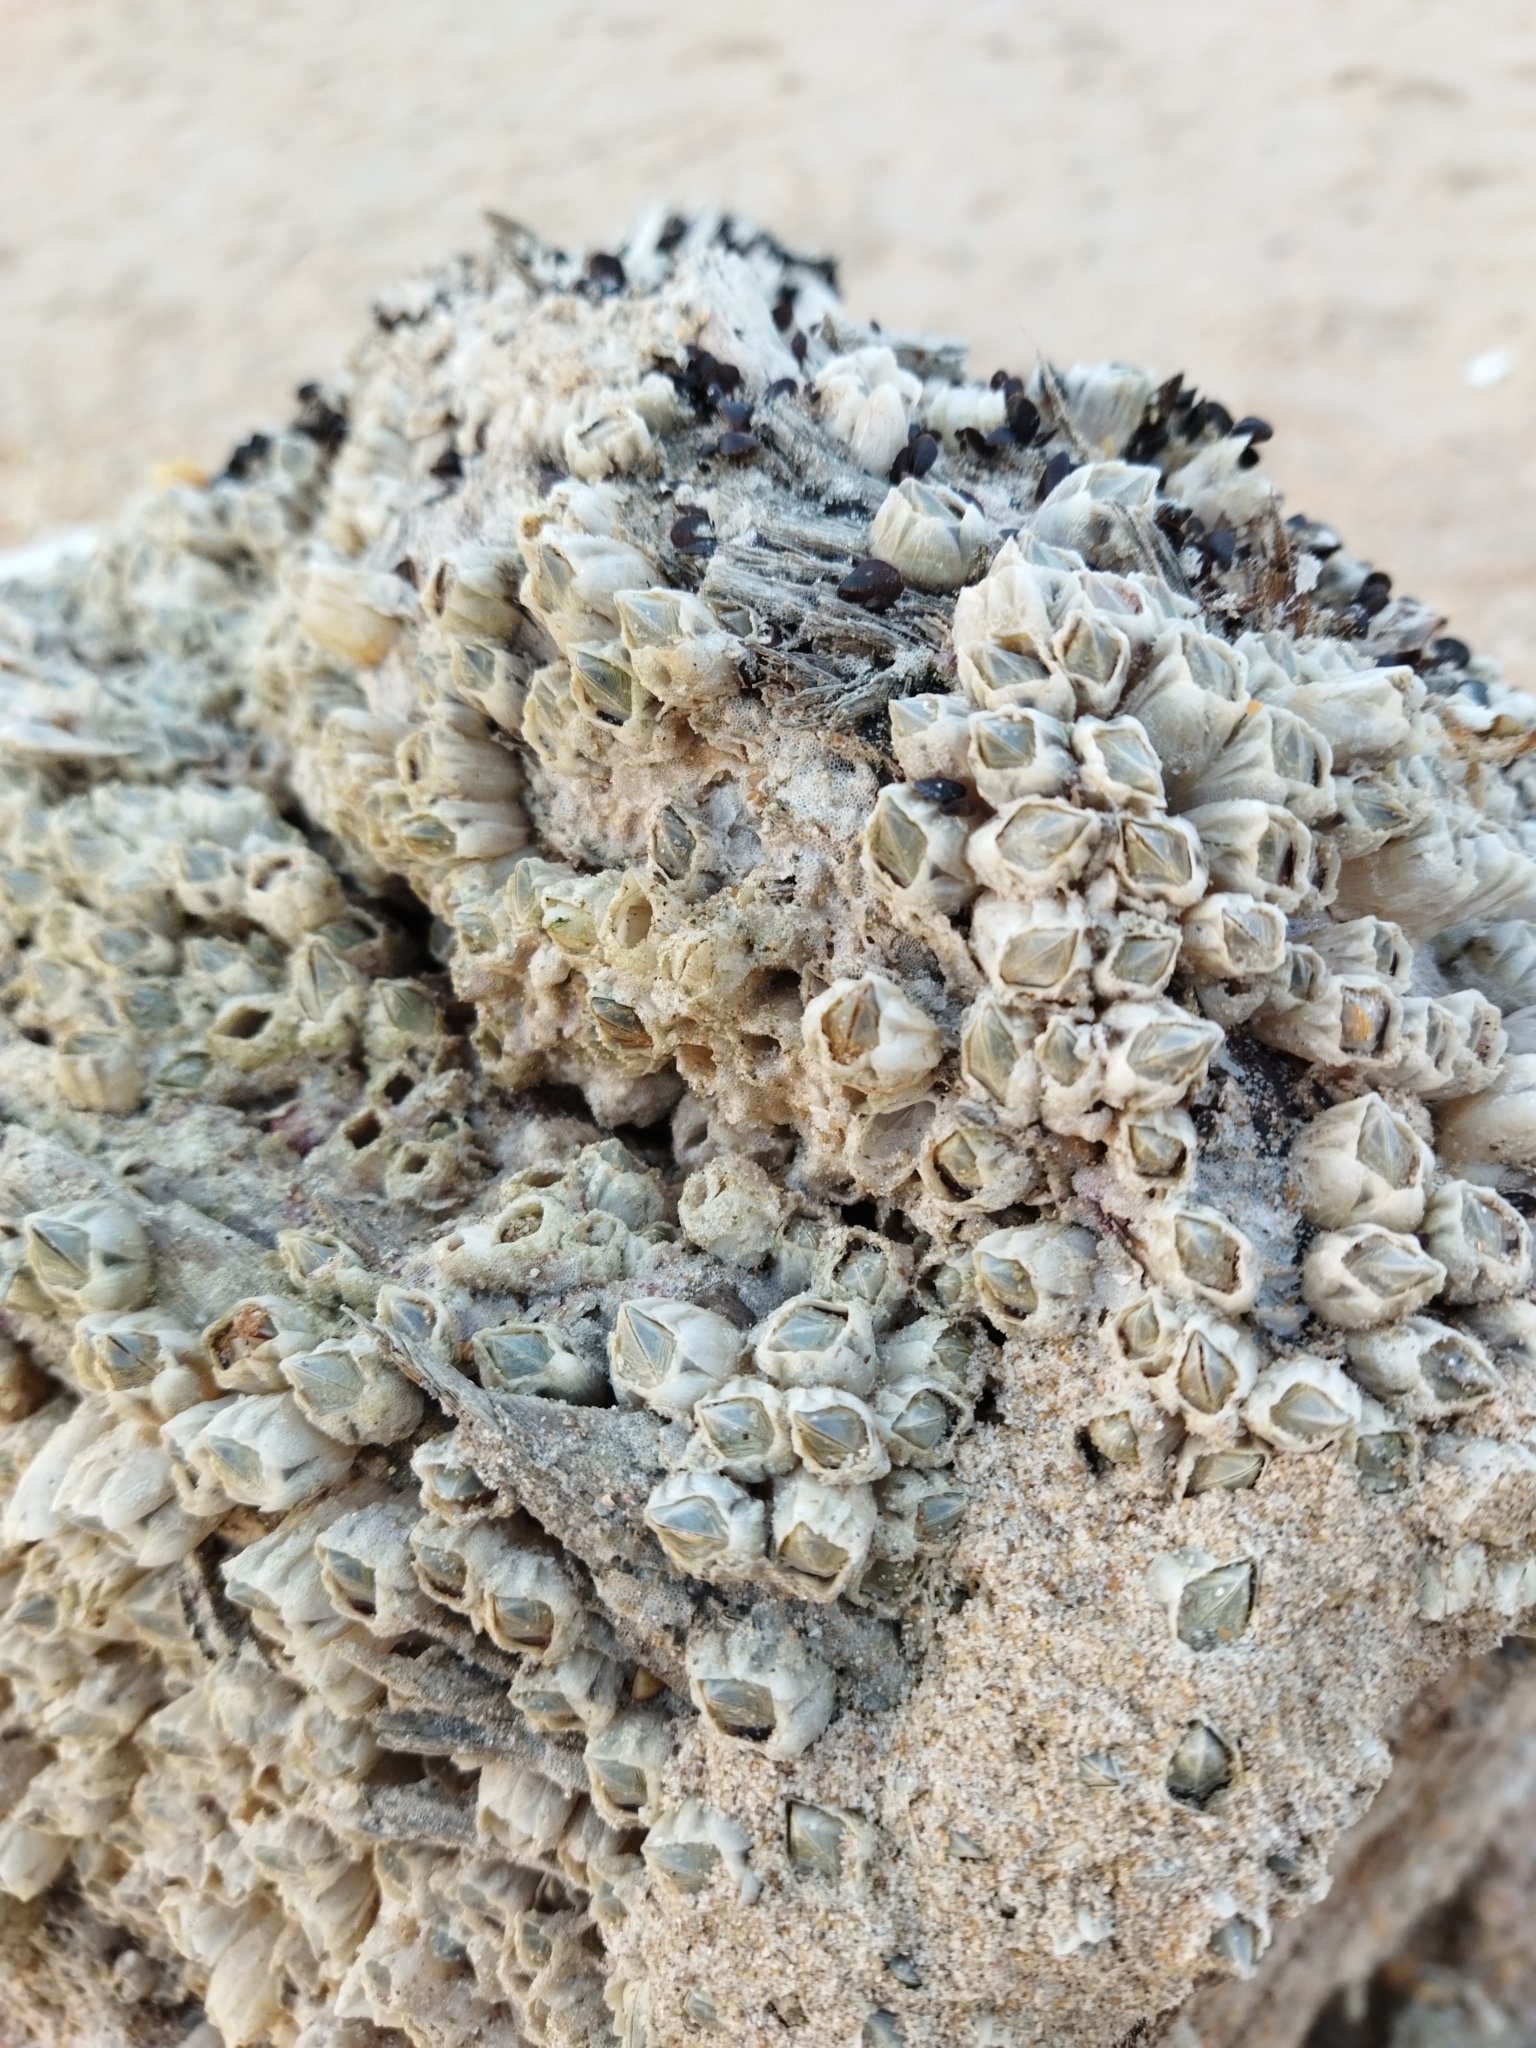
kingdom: Animalia
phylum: Arthropoda
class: Maxillopoda
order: Sessilia
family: Balanidae
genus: Amphibalanus
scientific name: Amphibalanus improvisus
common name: Bay barnacle
